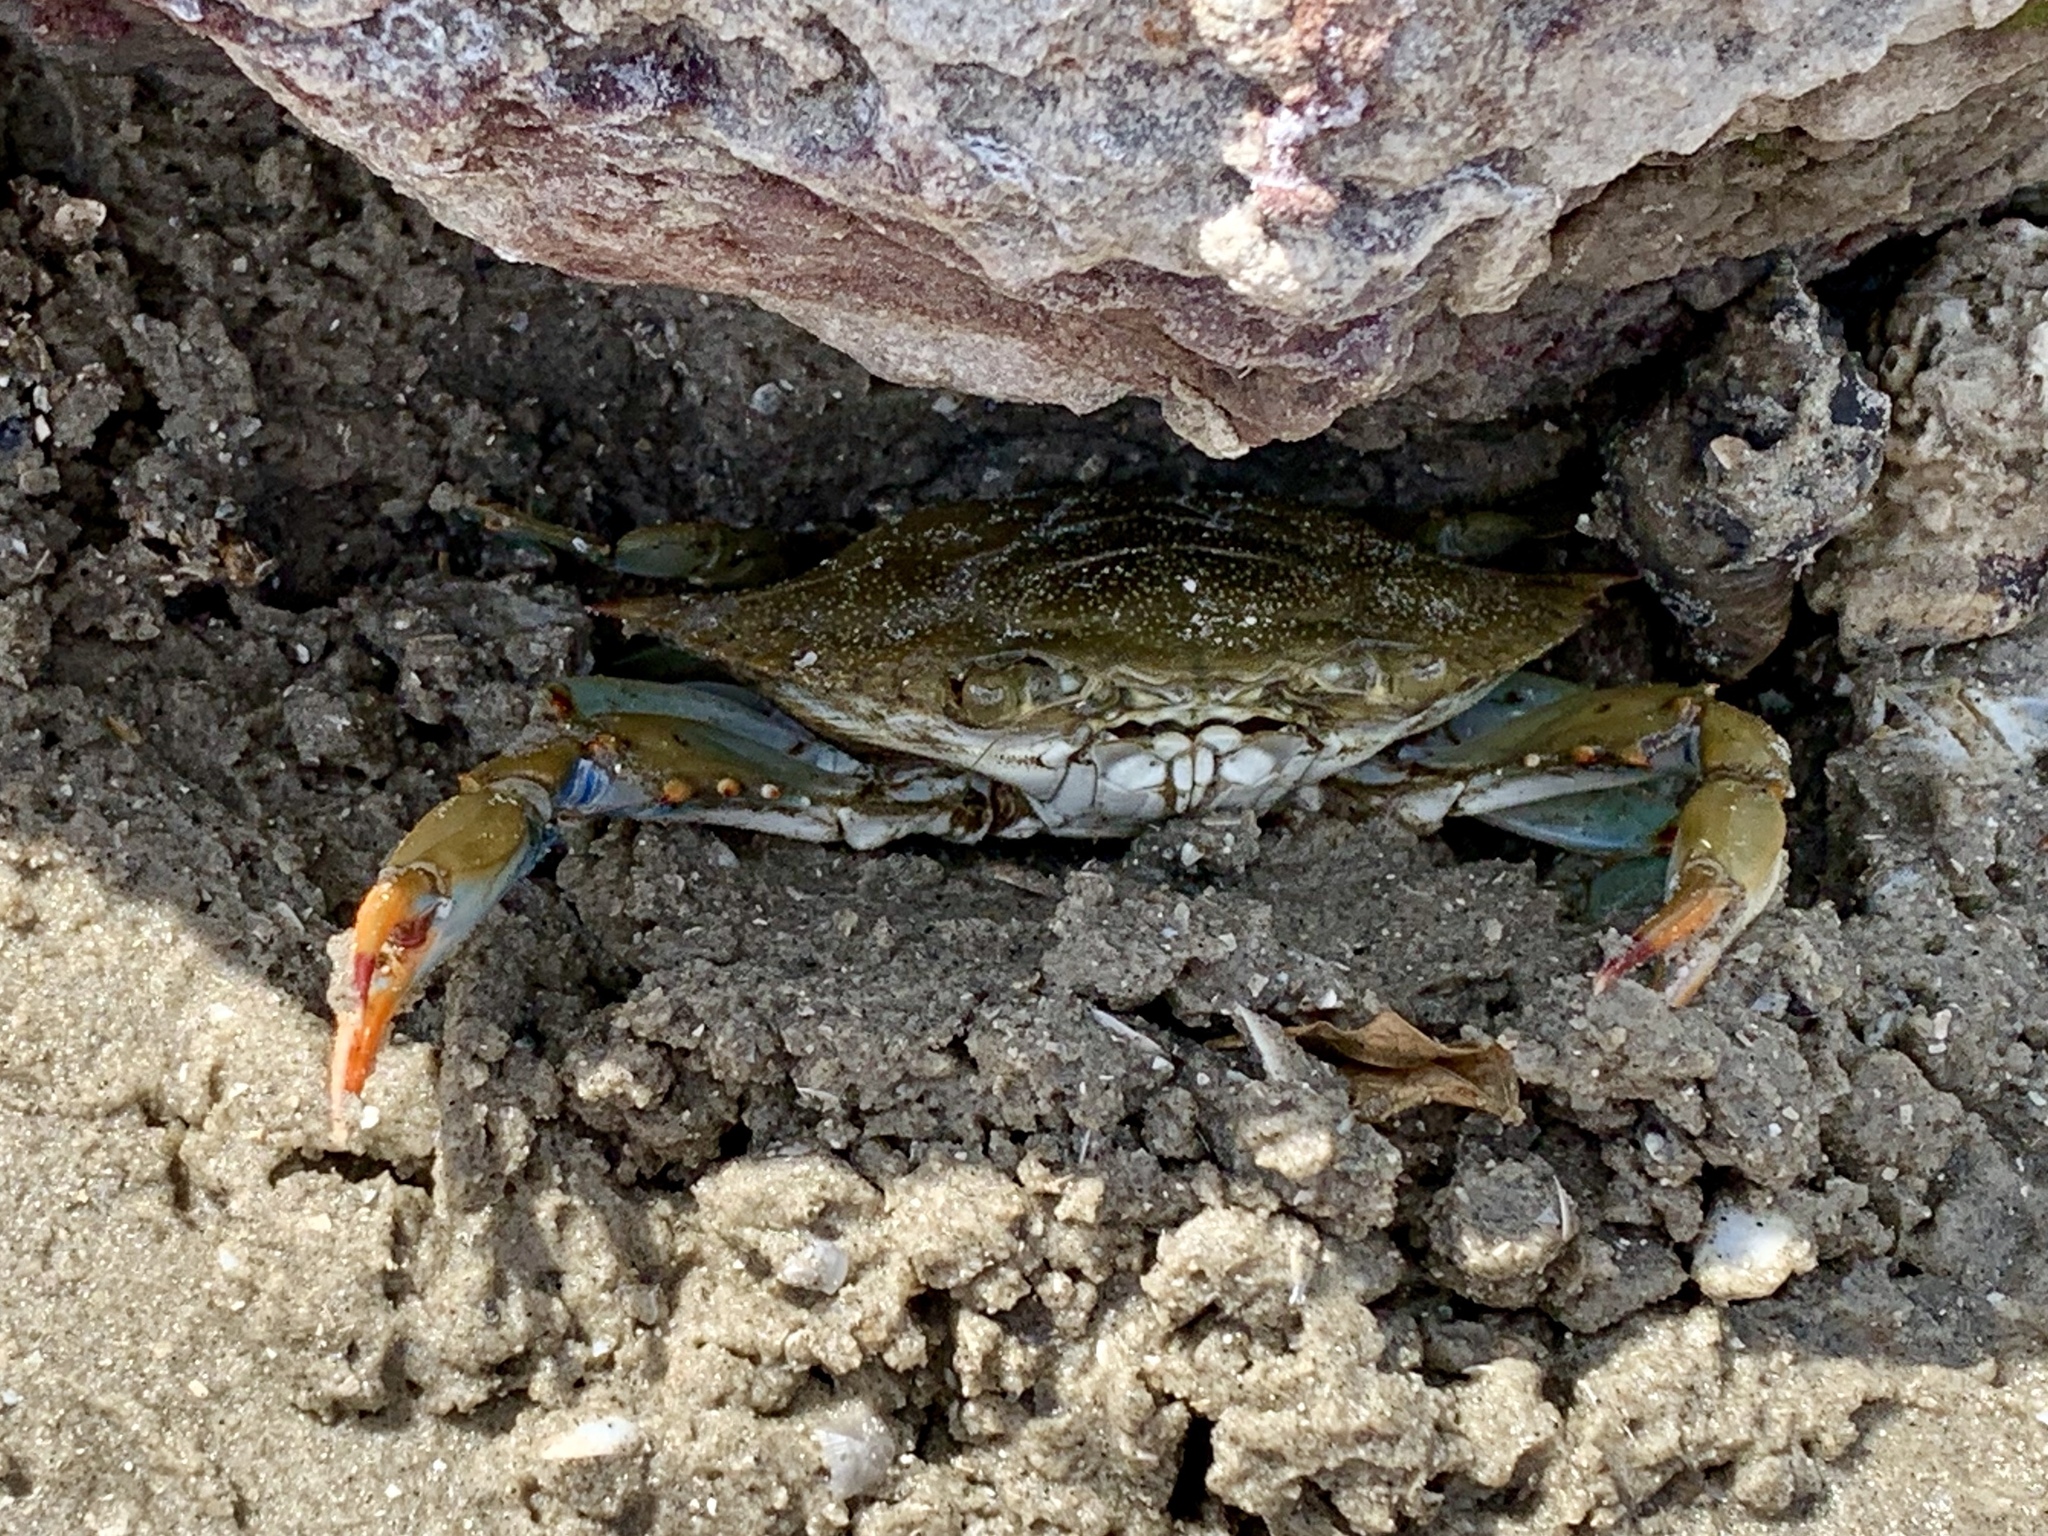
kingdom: Animalia
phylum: Arthropoda
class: Malacostraca
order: Decapoda
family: Portunidae
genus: Callinectes
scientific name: Callinectes sapidus
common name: Blue crab
